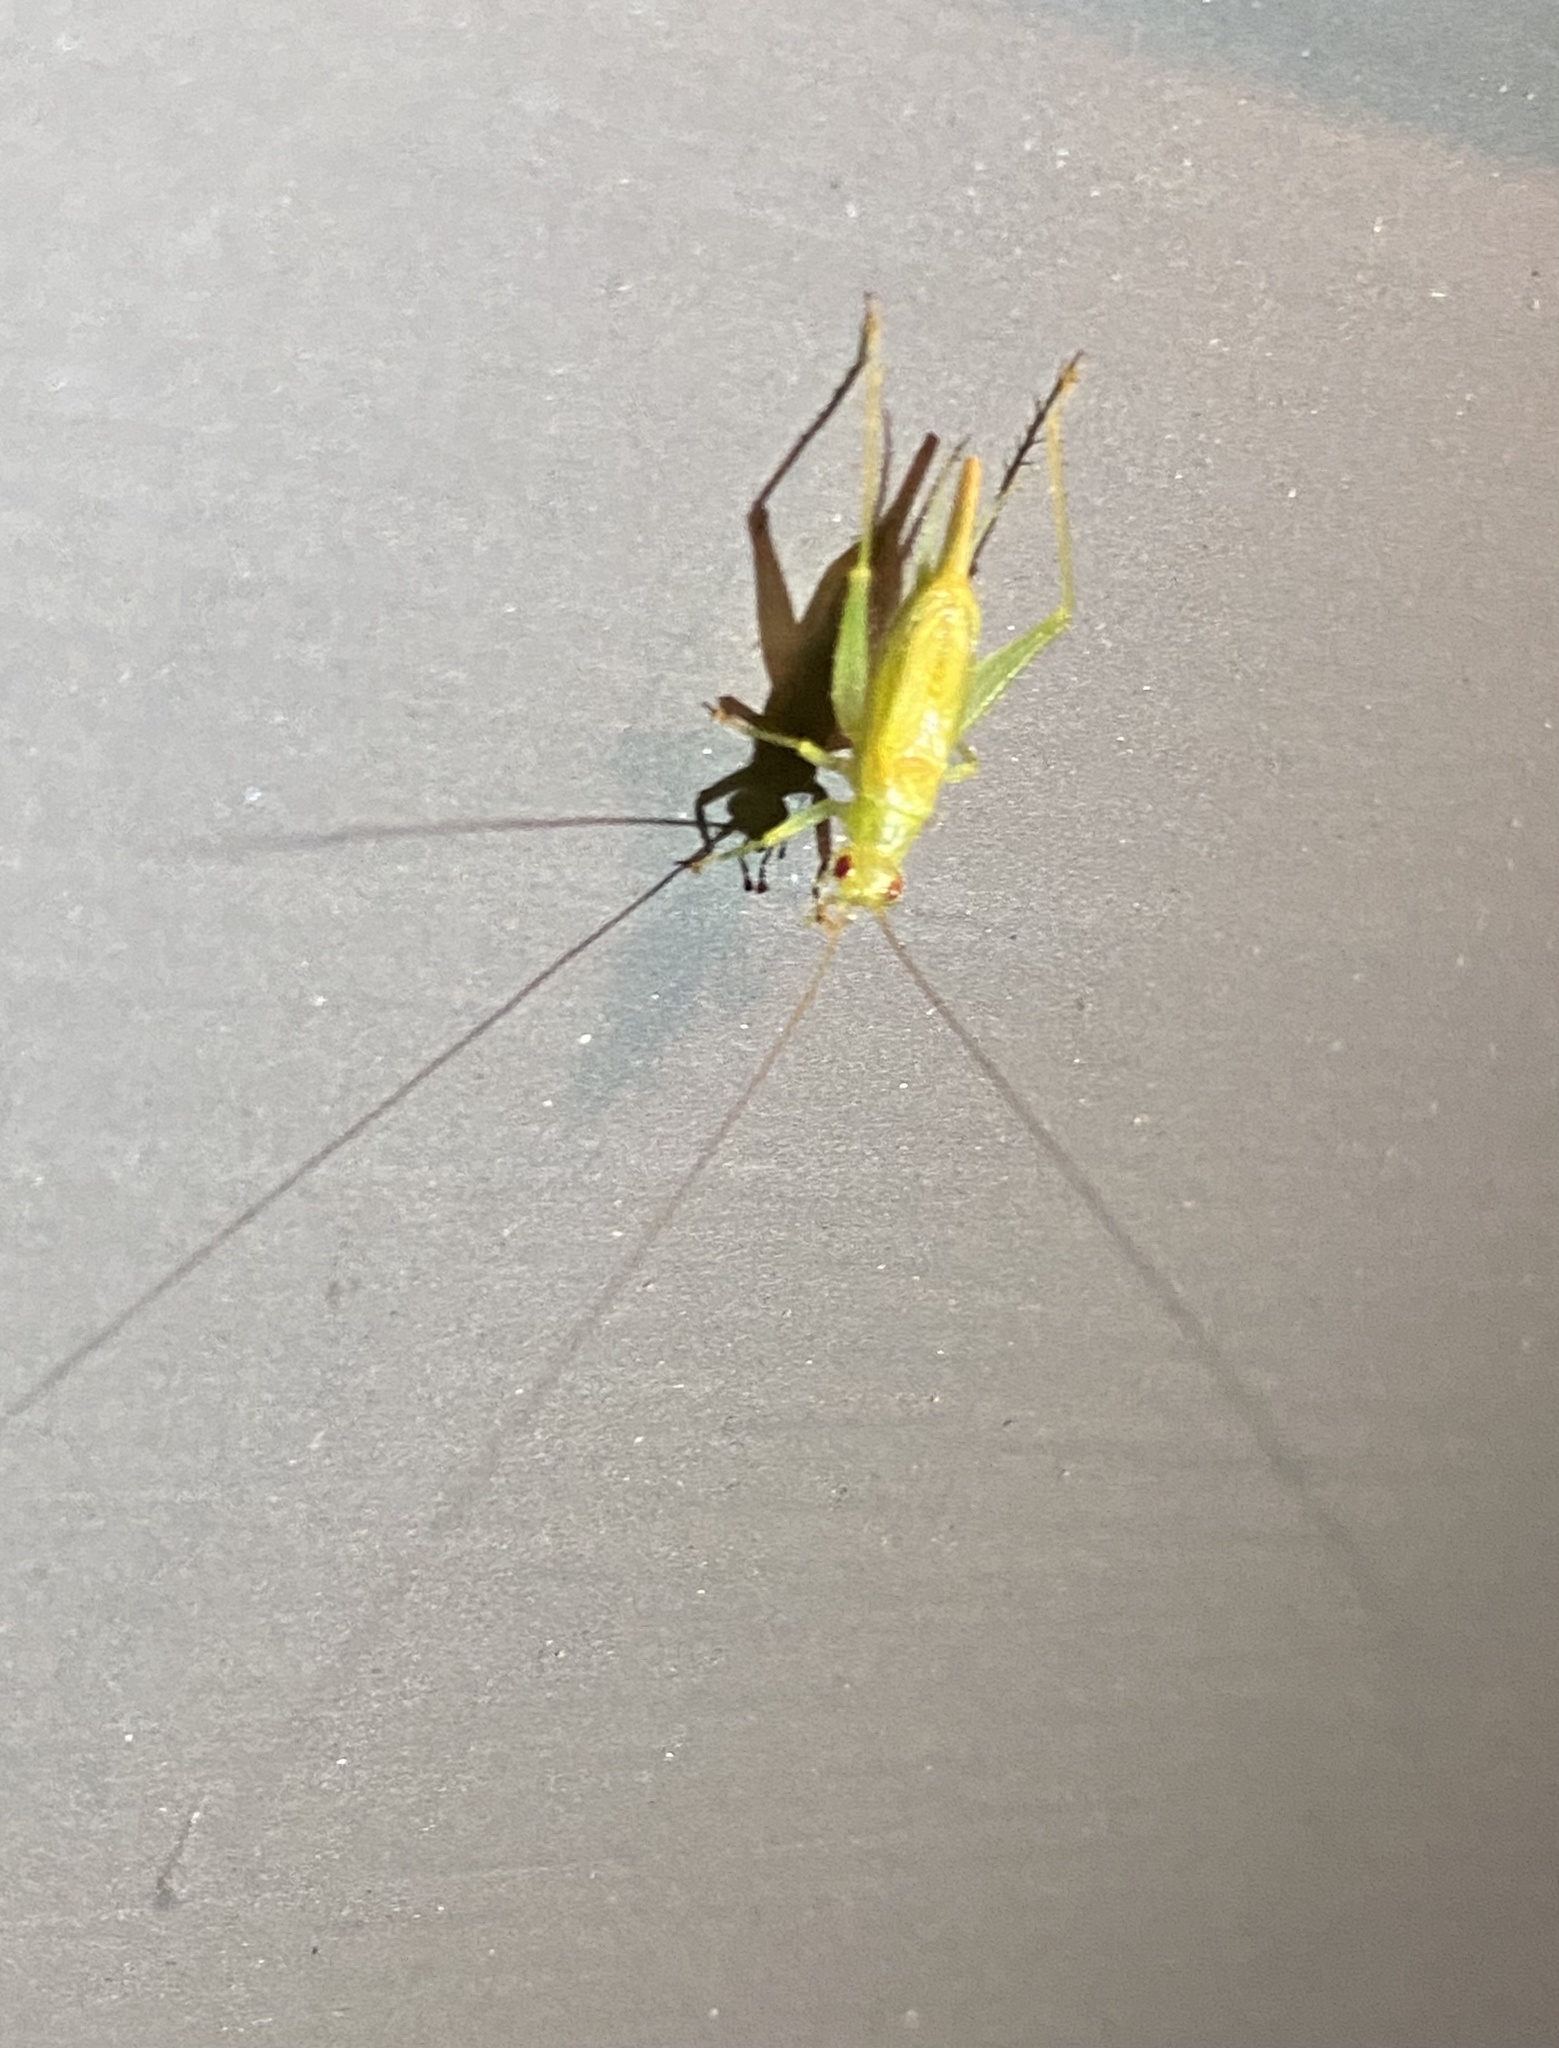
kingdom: Animalia
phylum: Arthropoda
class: Insecta
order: Orthoptera
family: Trigonidiidae
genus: Cyrtoxipha
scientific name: Cyrtoxipha columbiana
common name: Columbian trig
